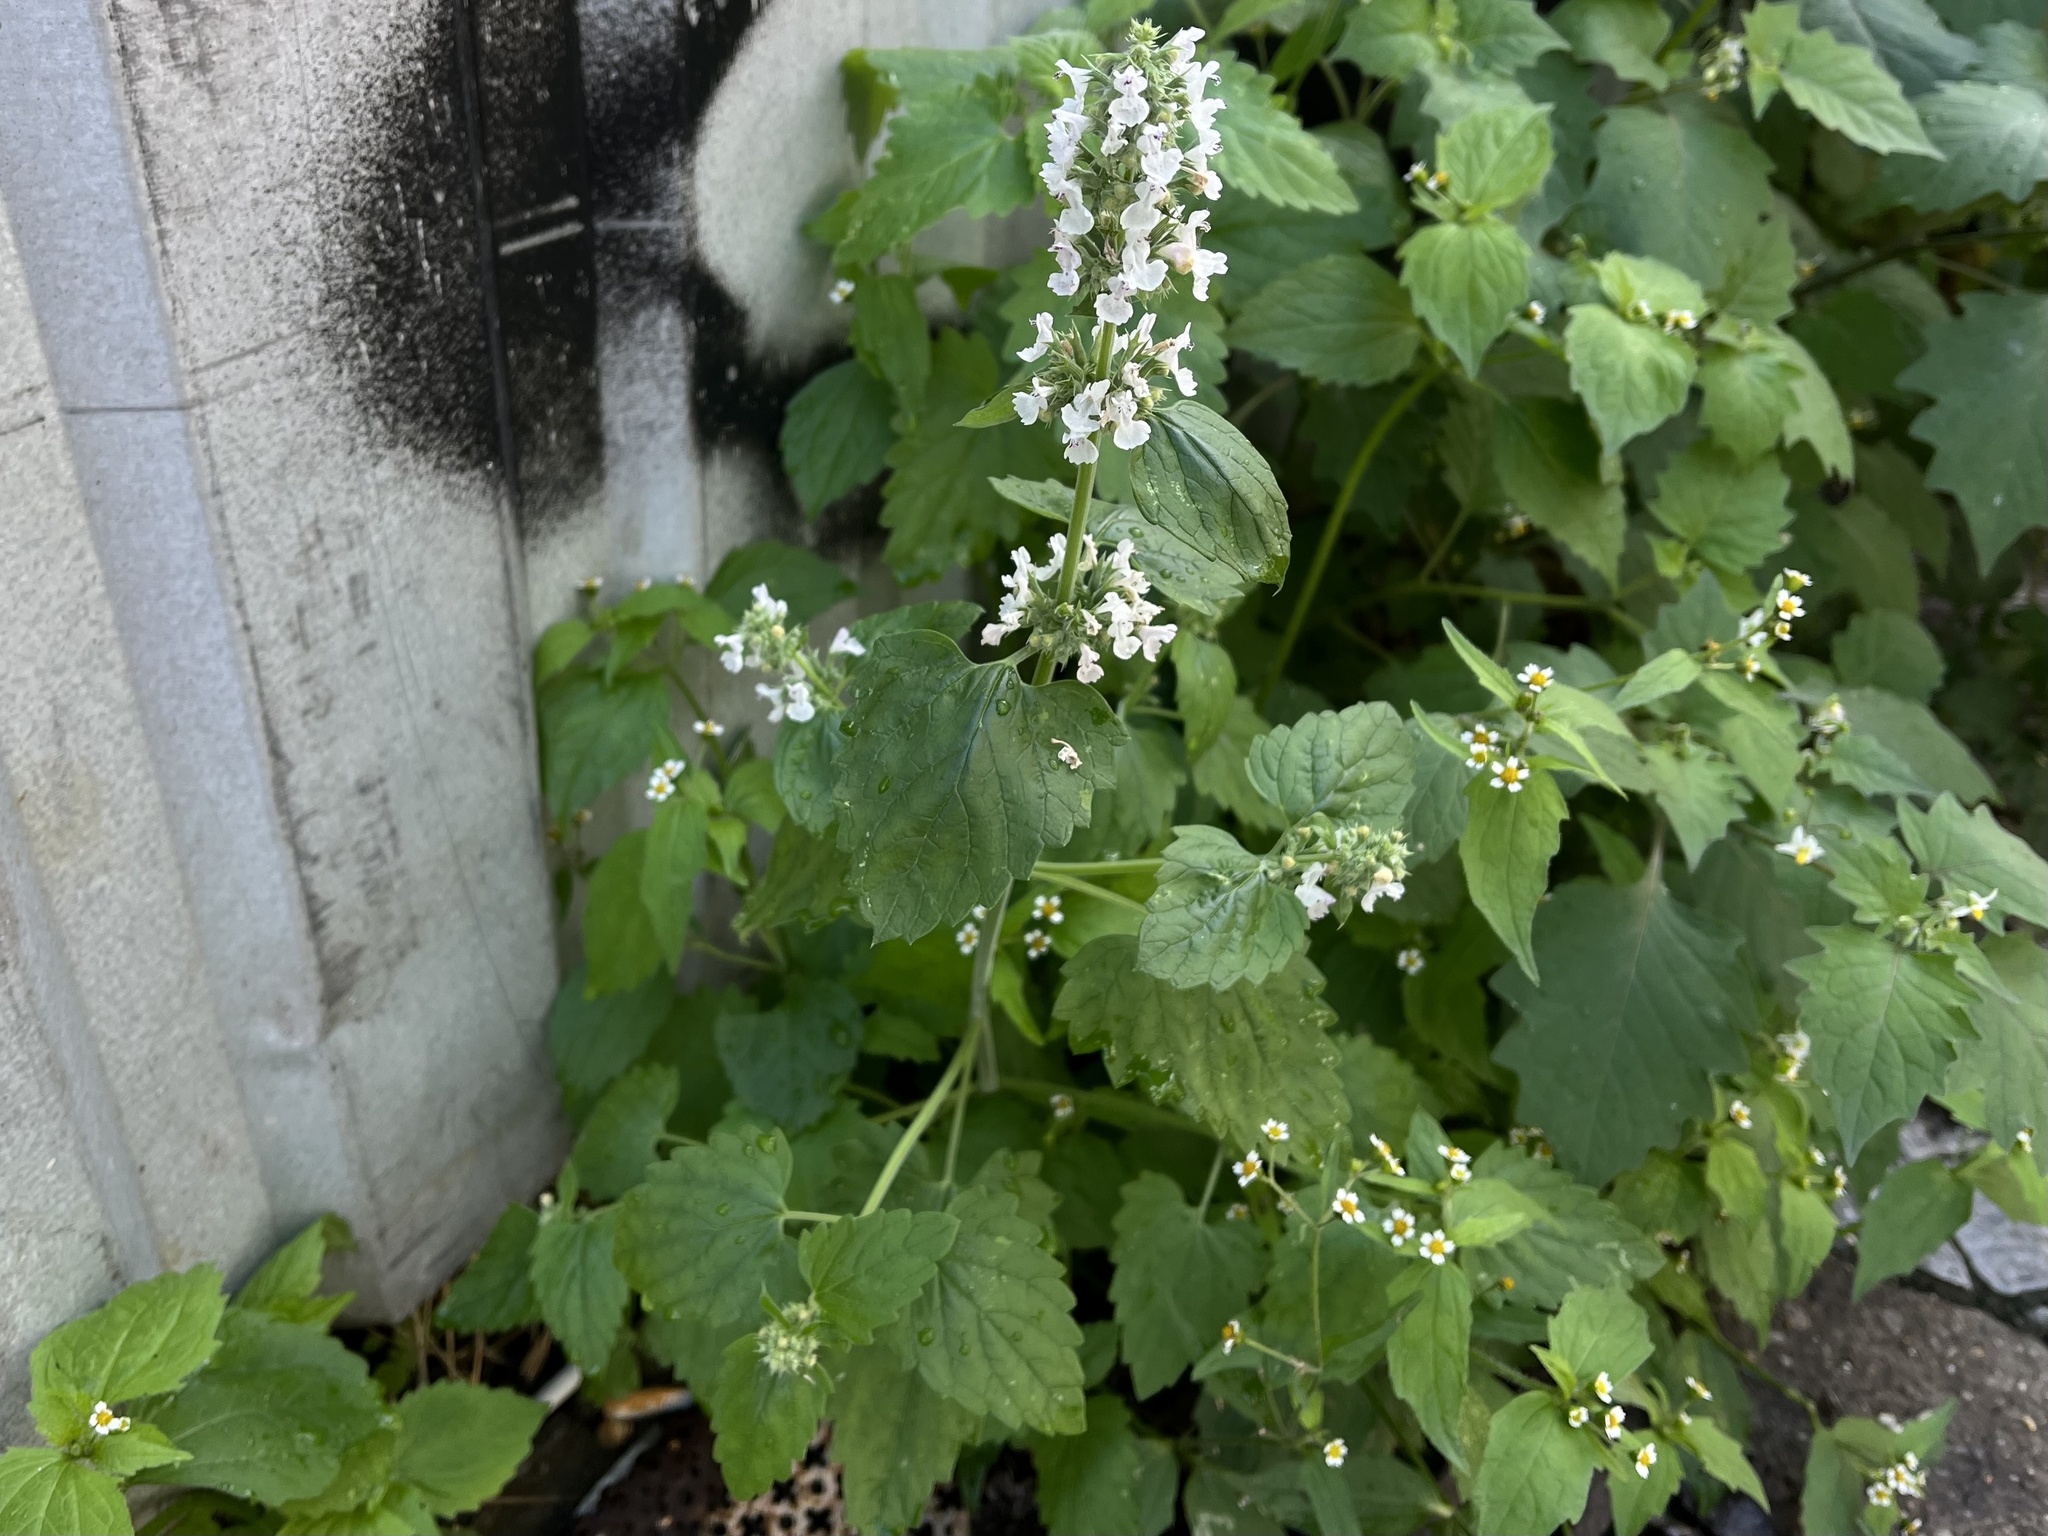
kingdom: Plantae
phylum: Tracheophyta
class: Magnoliopsida
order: Lamiales
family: Lamiaceae
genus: Nepeta
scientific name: Nepeta cataria
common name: Catnip
